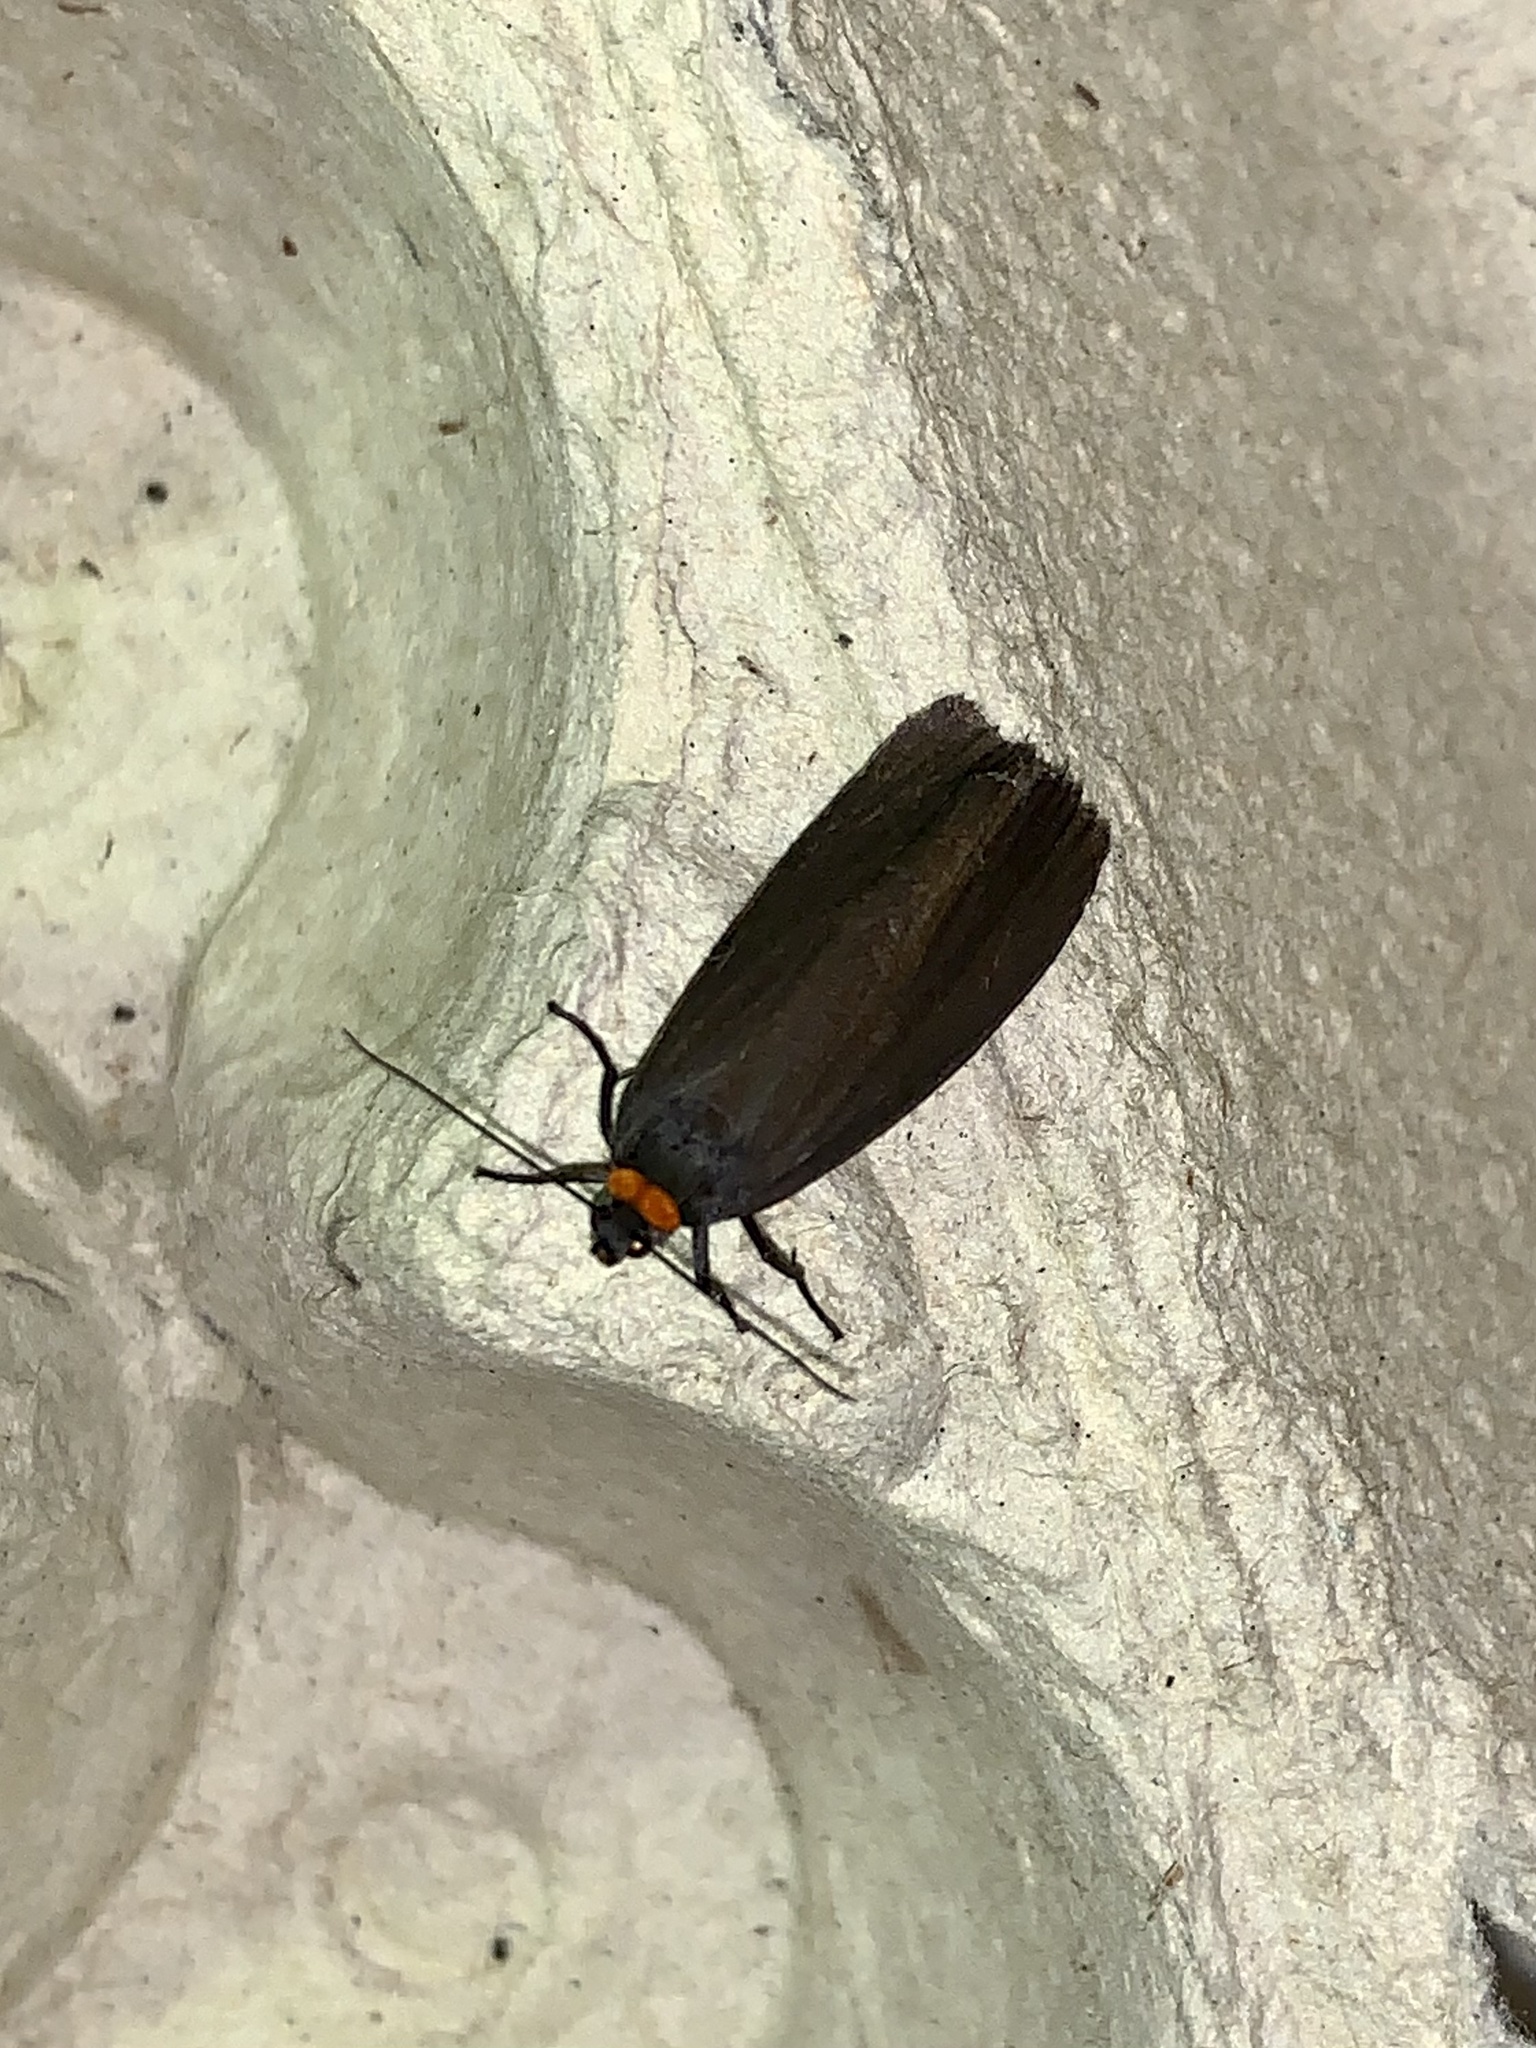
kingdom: Animalia
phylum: Arthropoda
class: Insecta
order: Lepidoptera
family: Erebidae
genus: Atolmis
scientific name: Atolmis rubricollis
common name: Red-necked footman
